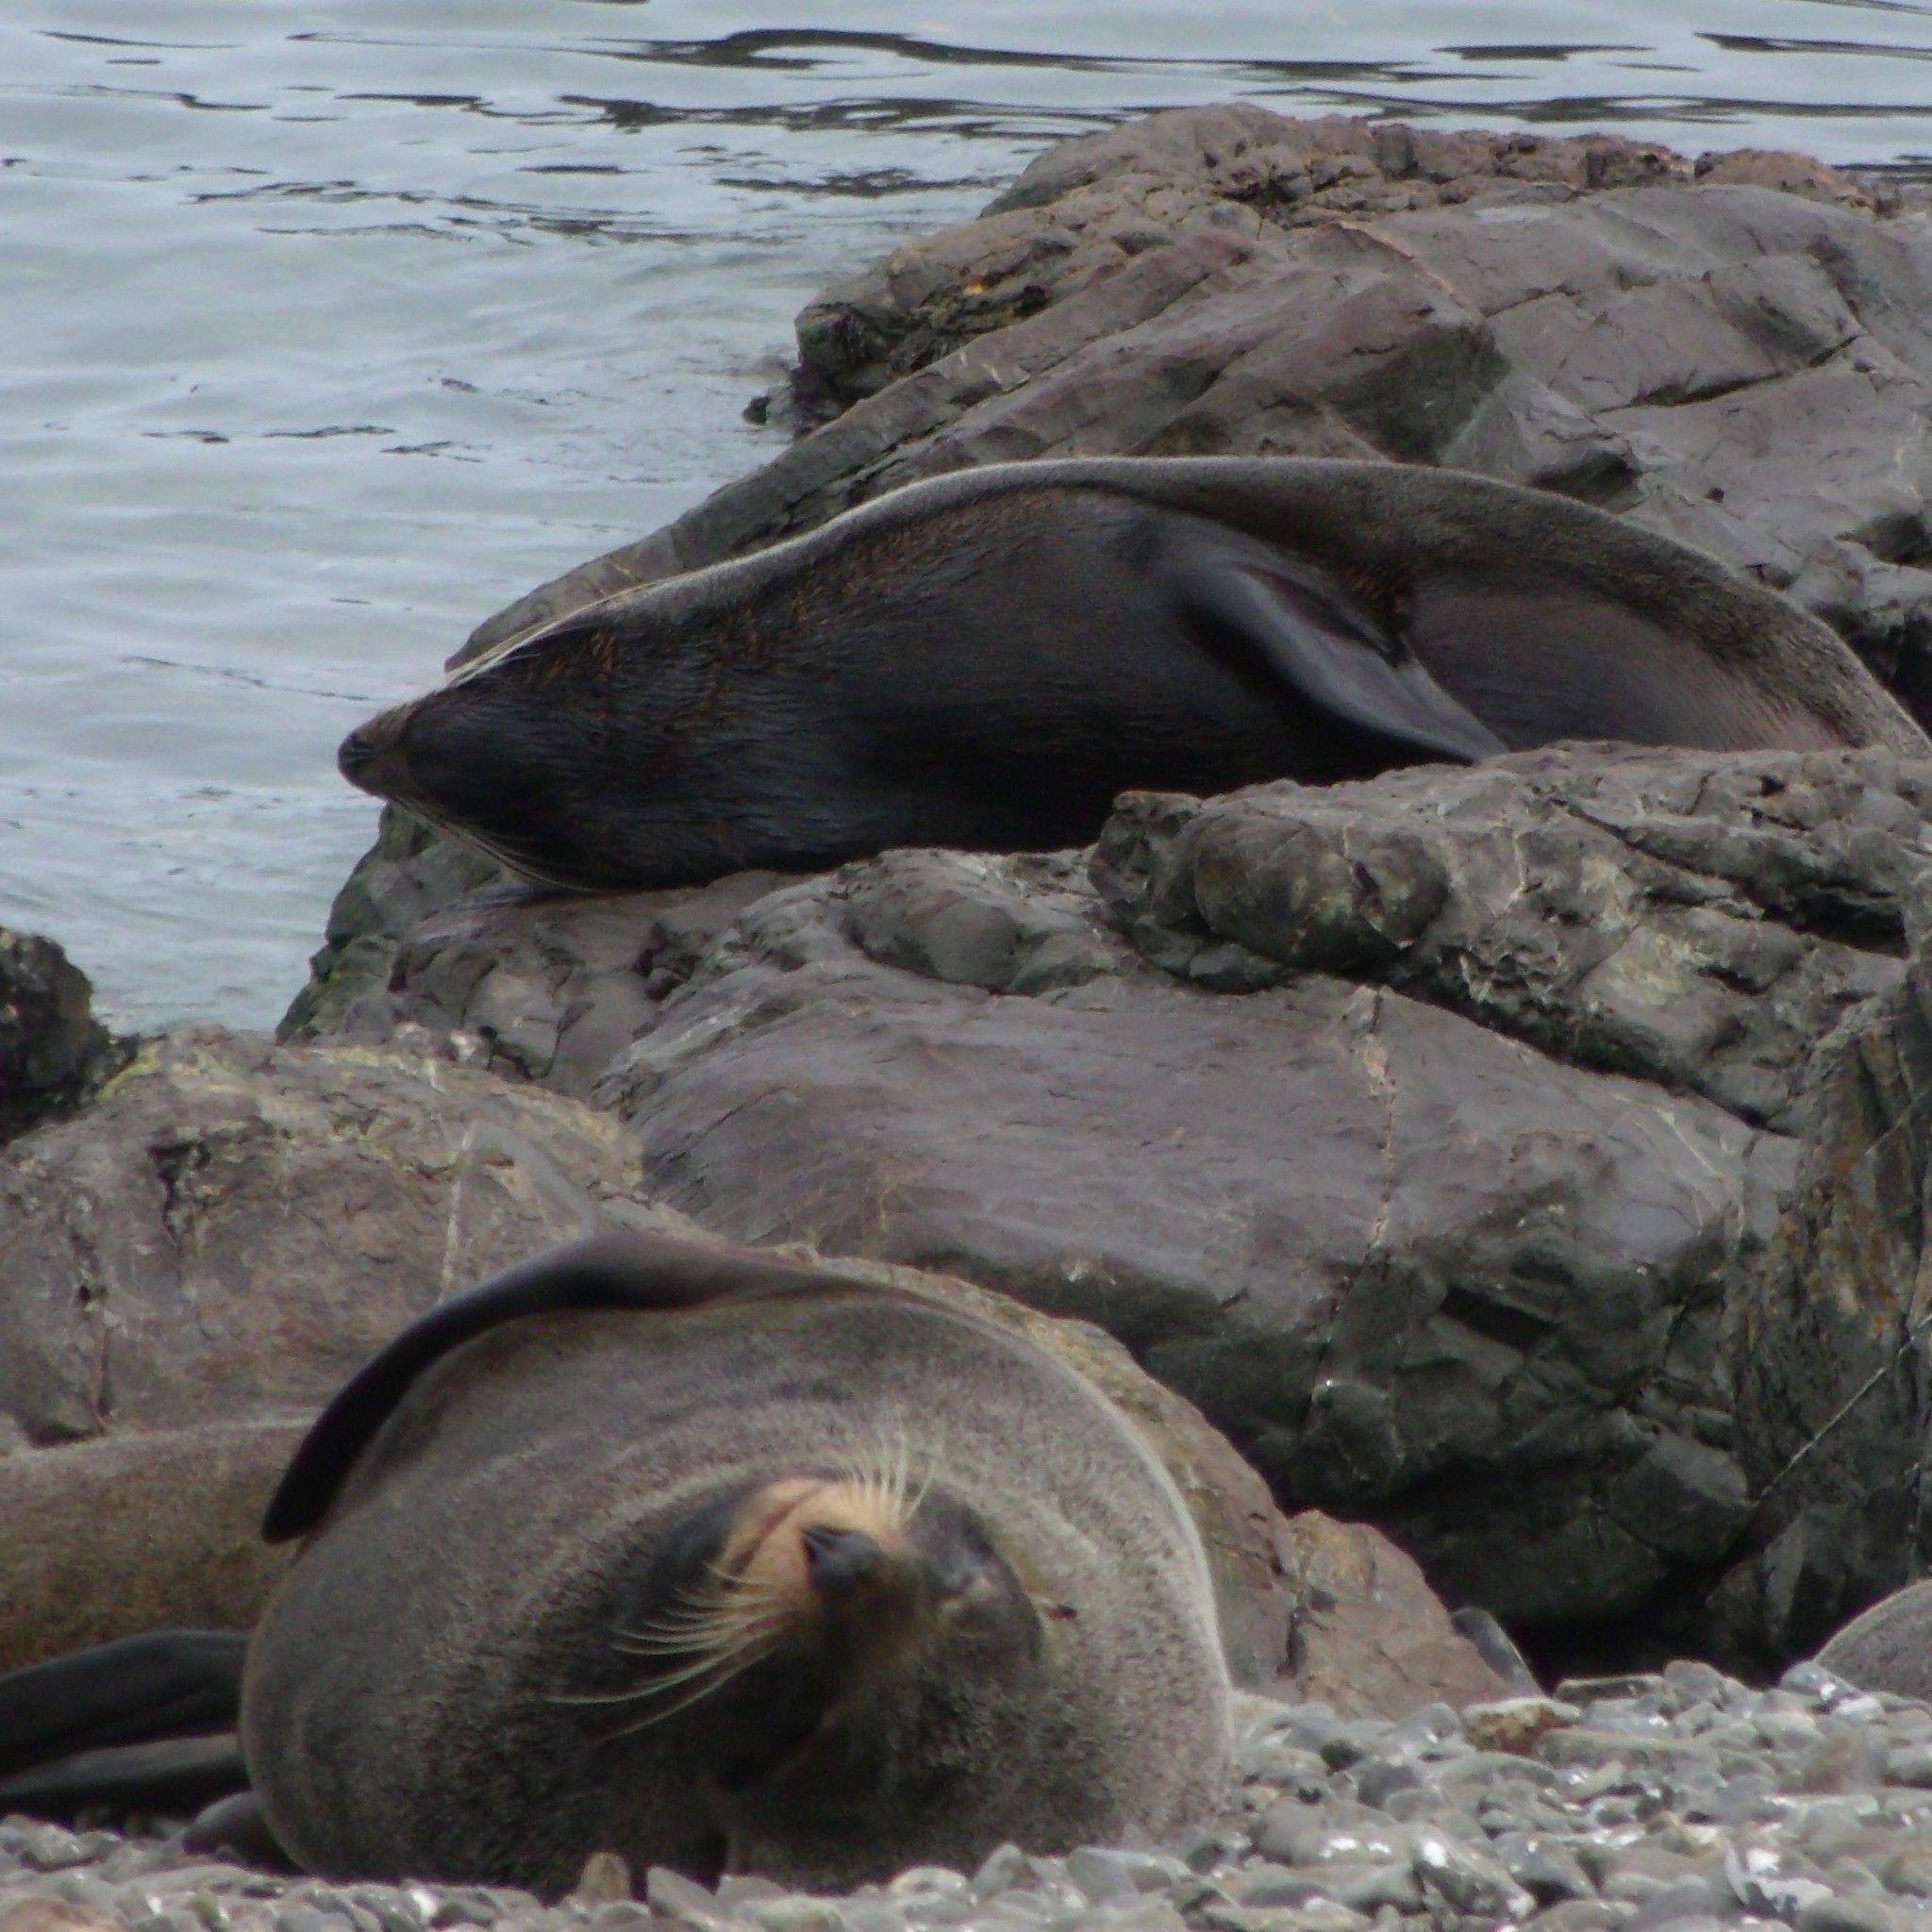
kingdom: Animalia
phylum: Chordata
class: Mammalia
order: Carnivora
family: Otariidae
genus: Arctocephalus
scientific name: Arctocephalus forsteri
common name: New zealand fur seal
